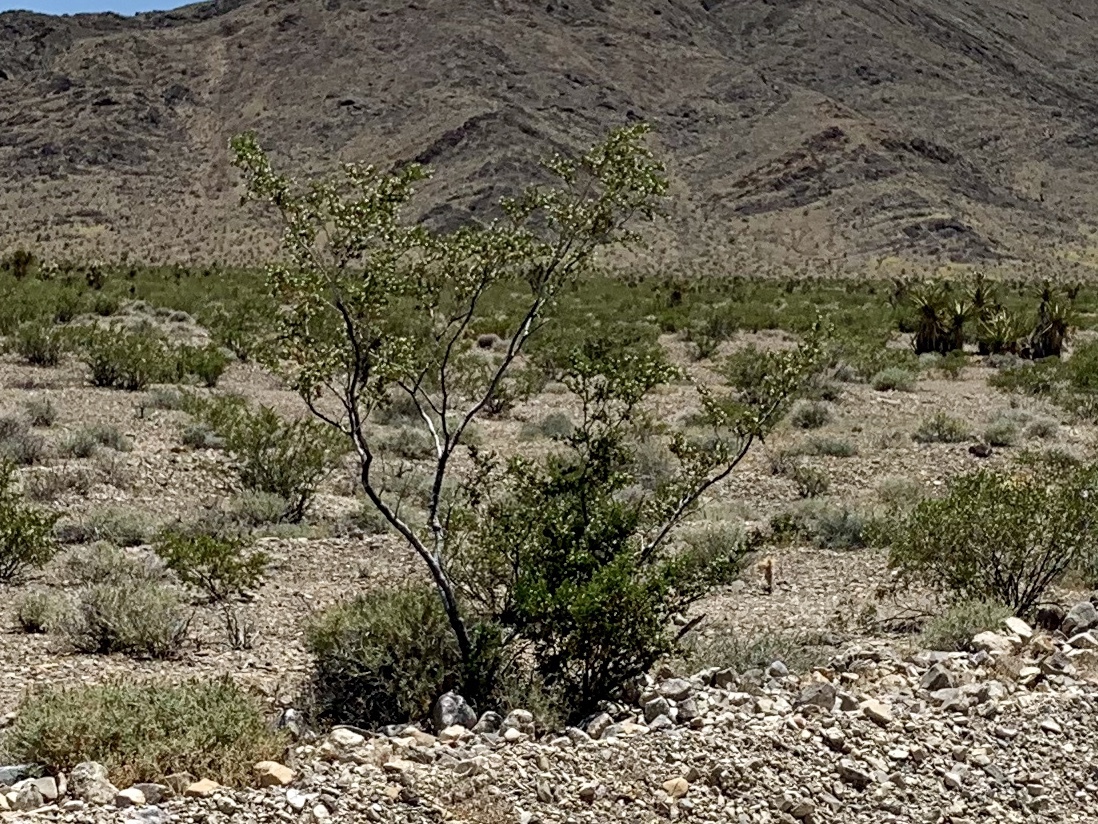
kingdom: Plantae
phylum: Tracheophyta
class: Magnoliopsida
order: Zygophyllales
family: Zygophyllaceae
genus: Larrea
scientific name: Larrea tridentata
